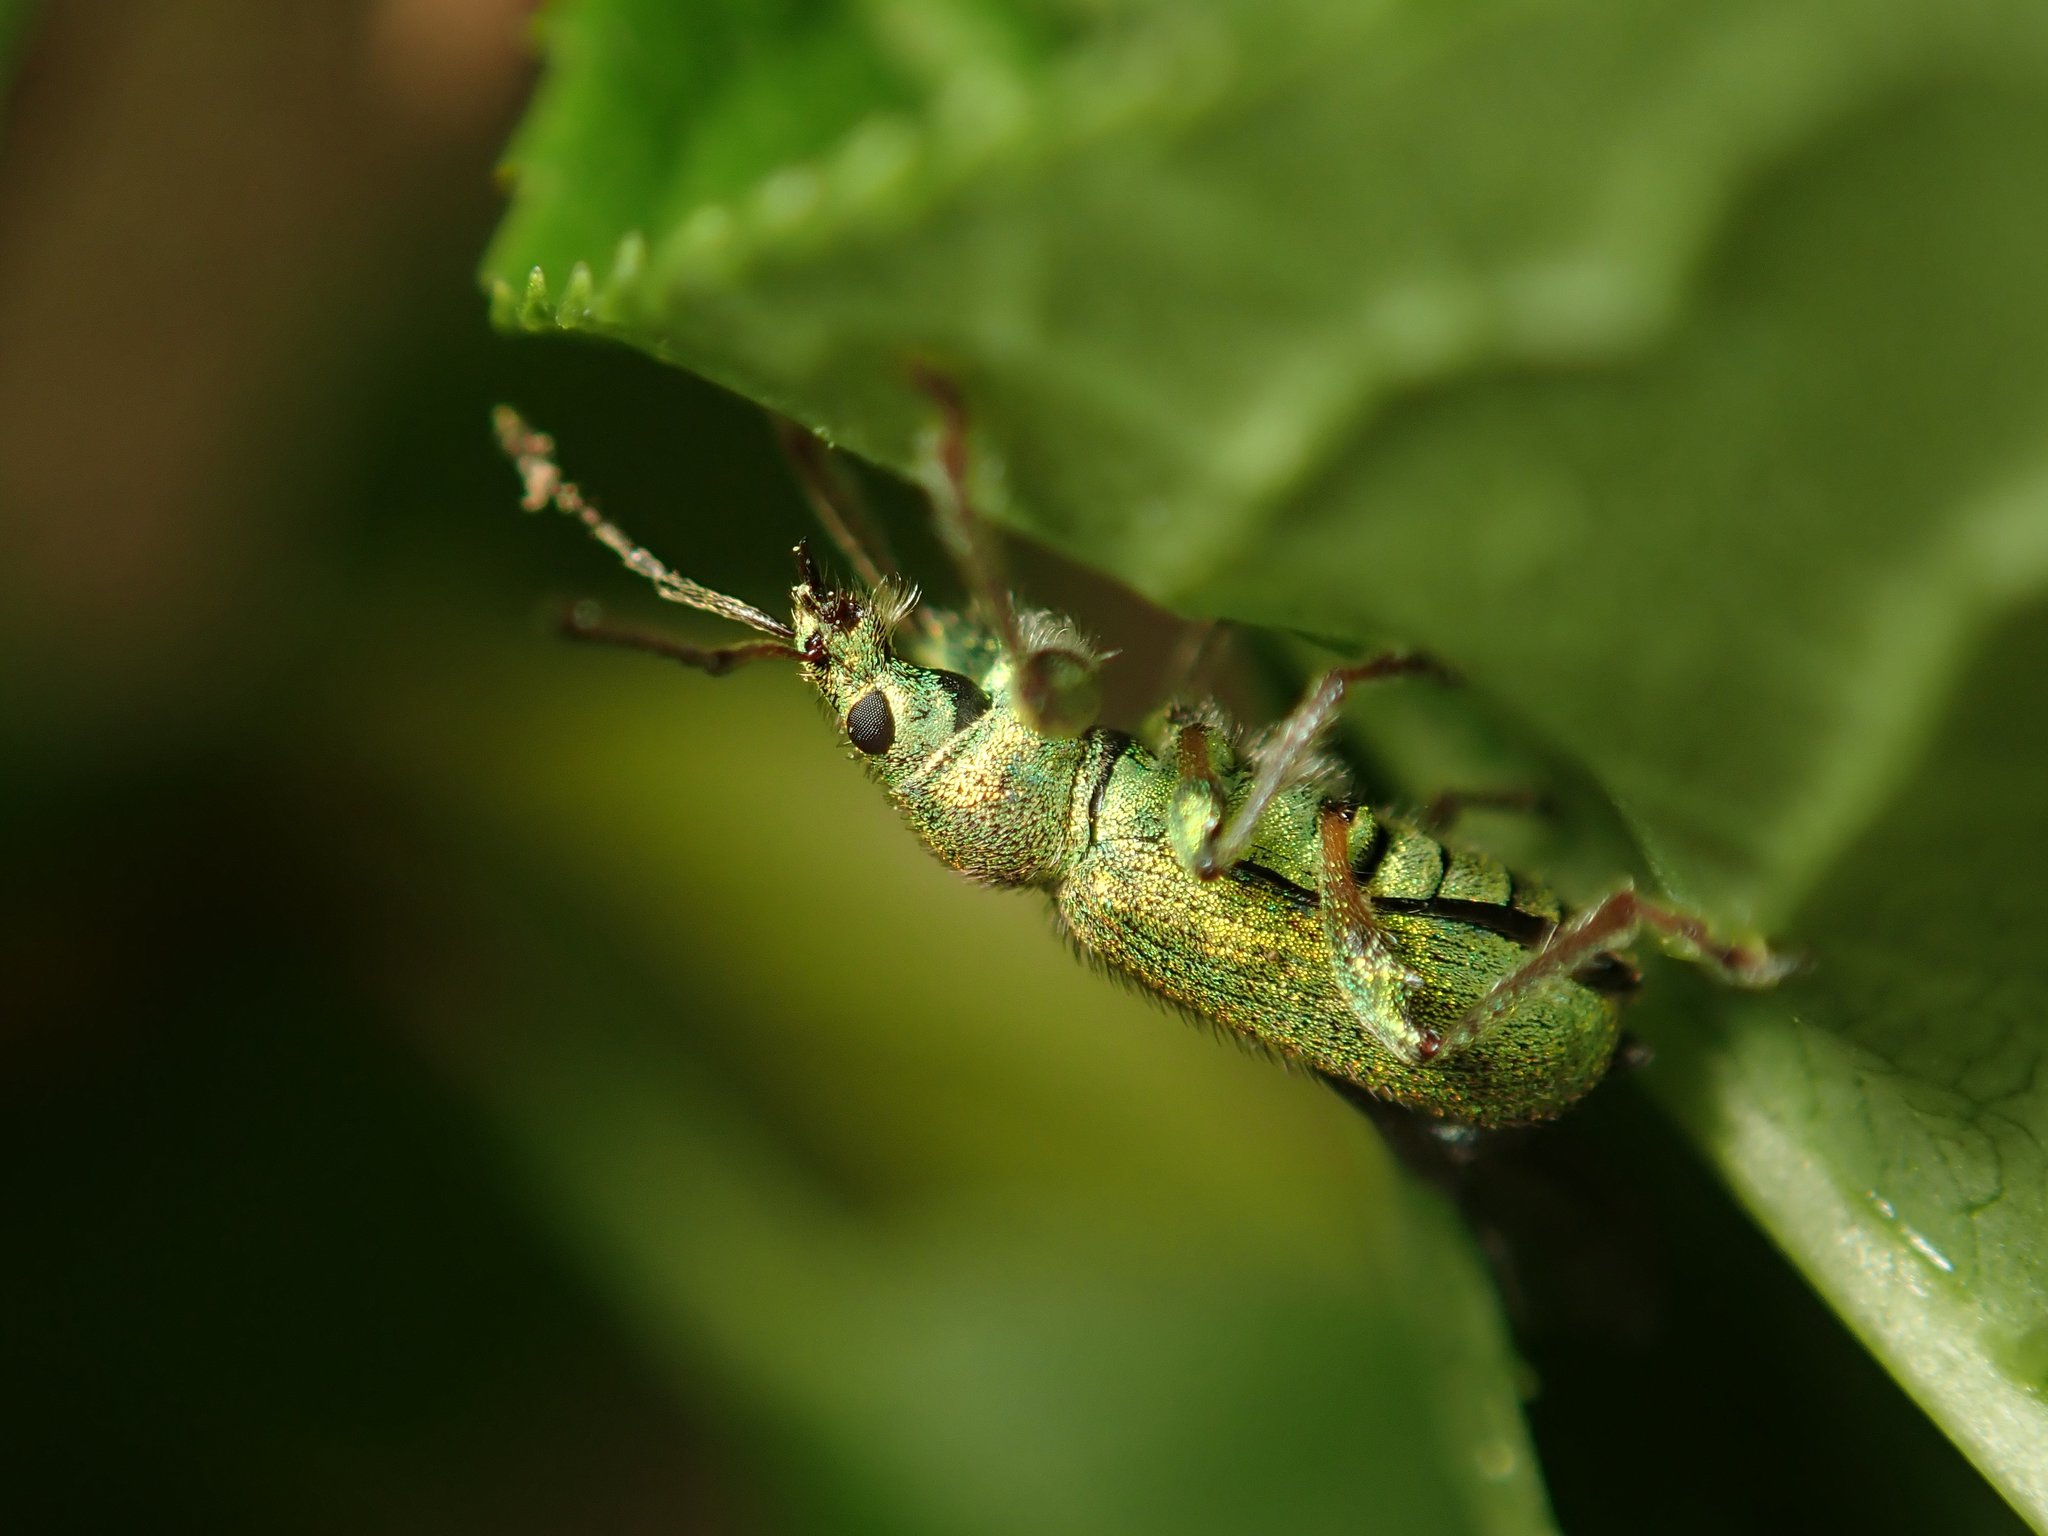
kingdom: Animalia
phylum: Arthropoda
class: Insecta
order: Coleoptera
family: Curculionidae
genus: Phyllobius
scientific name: Phyllobius arborator
